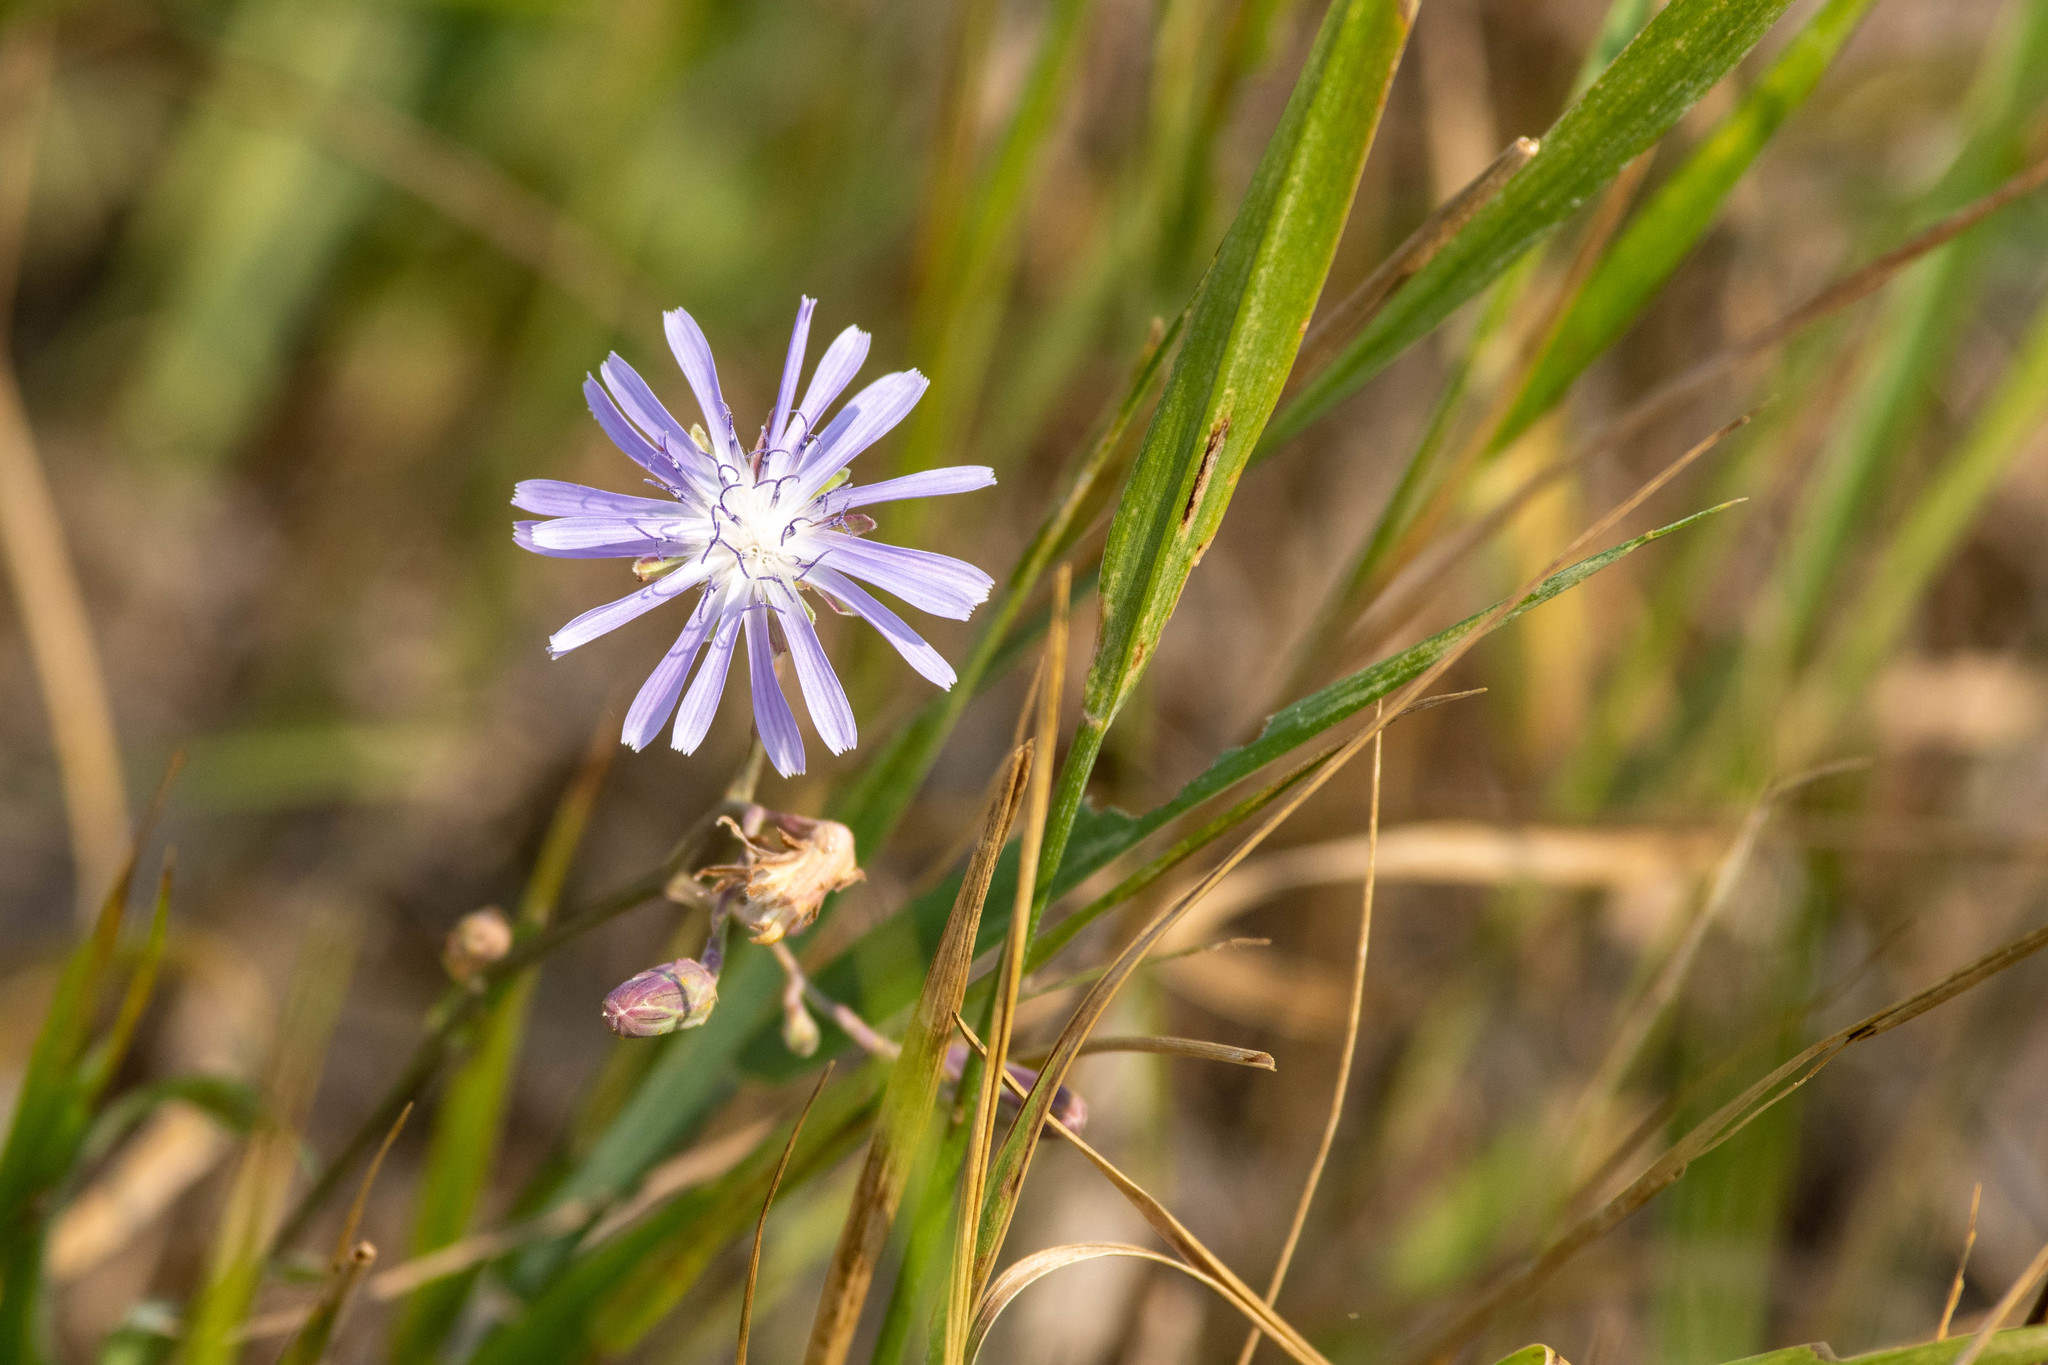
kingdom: Plantae
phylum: Tracheophyta
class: Magnoliopsida
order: Asterales
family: Asteraceae
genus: Lactuca
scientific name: Lactuca pulchella
